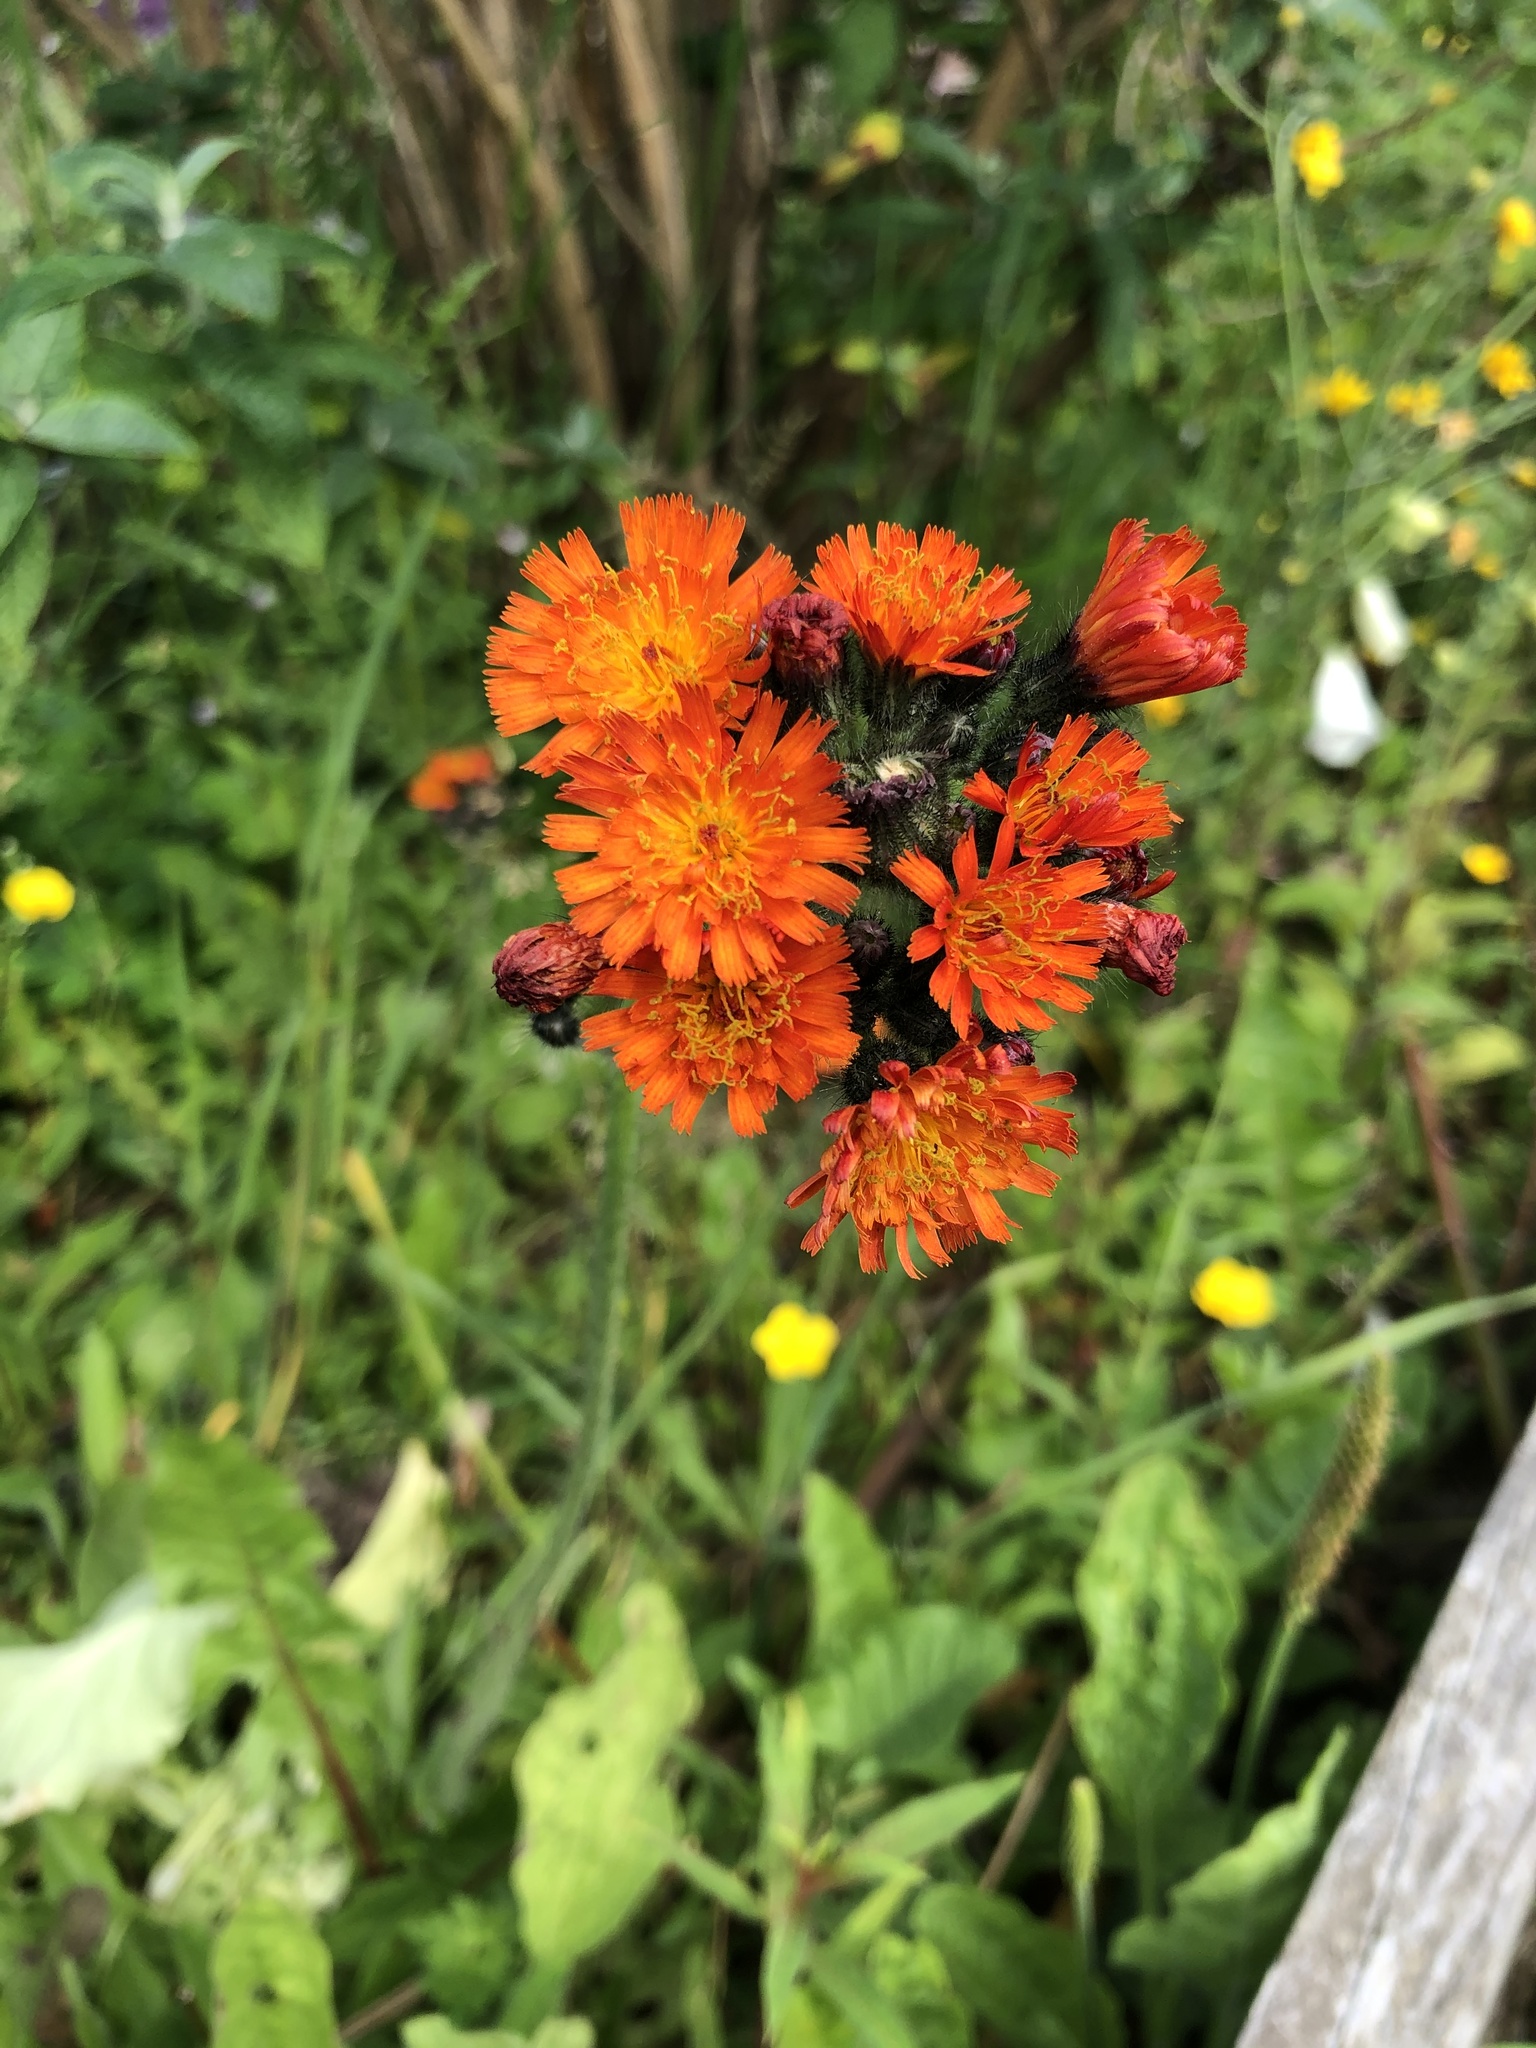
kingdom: Plantae
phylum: Tracheophyta
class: Magnoliopsida
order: Asterales
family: Asteraceae
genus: Pilosella
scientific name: Pilosella aurantiaca
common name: Fox-and-cubs
